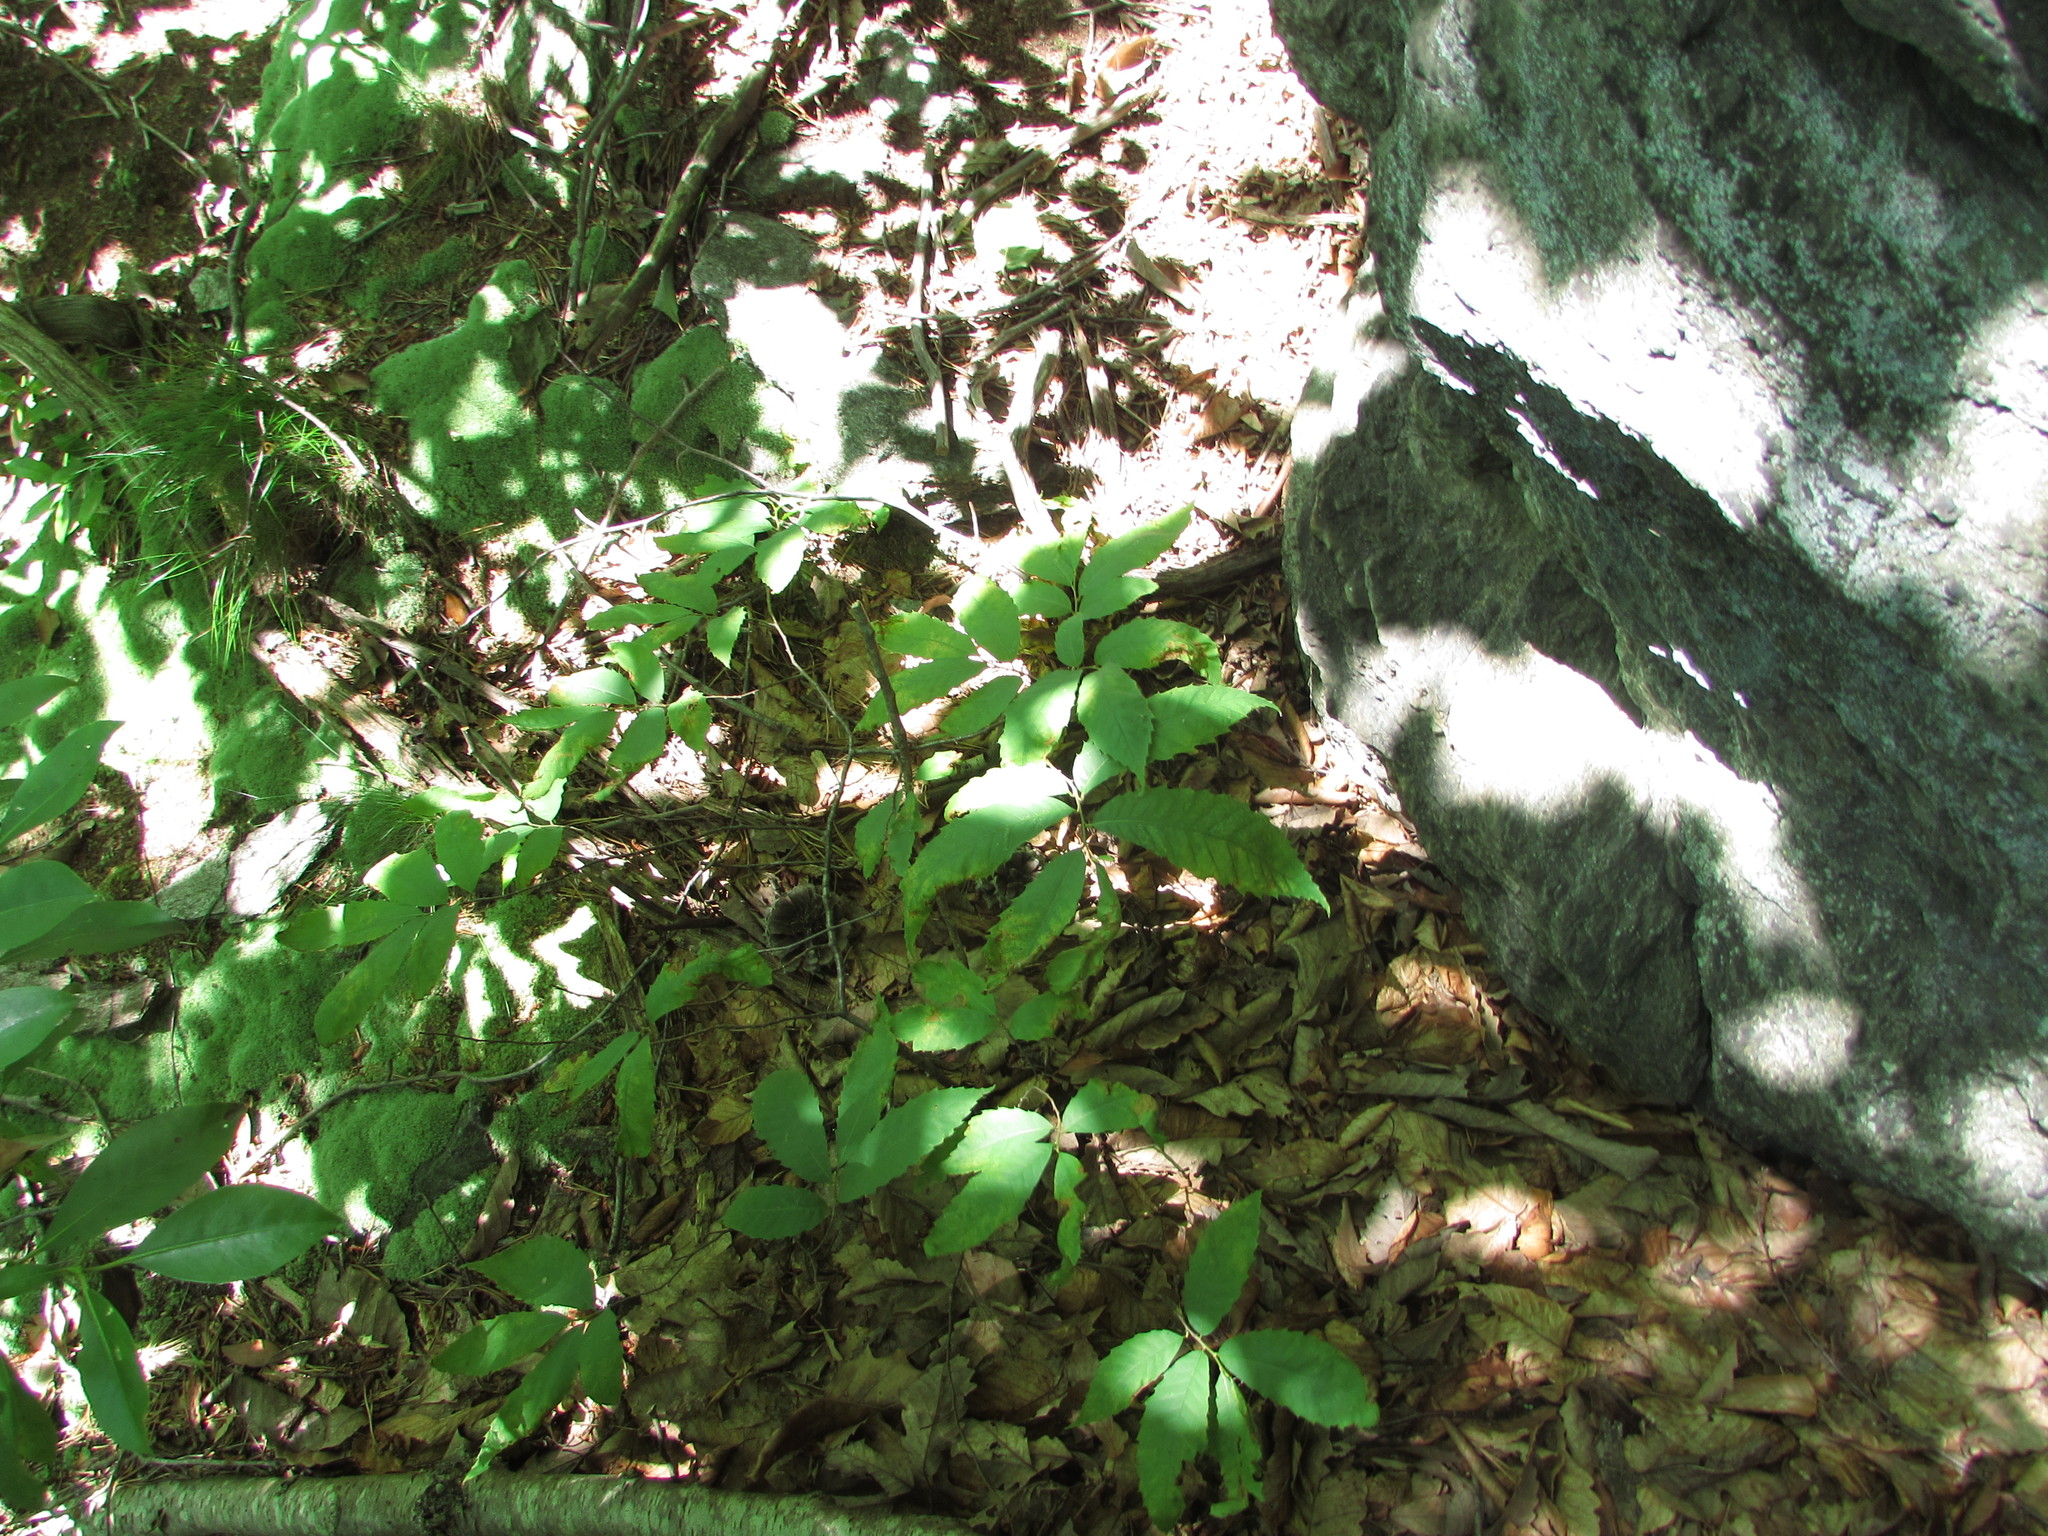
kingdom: Plantae
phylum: Tracheophyta
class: Magnoliopsida
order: Fagales
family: Fagaceae
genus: Castanea
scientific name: Castanea dentata
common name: American chestnut
